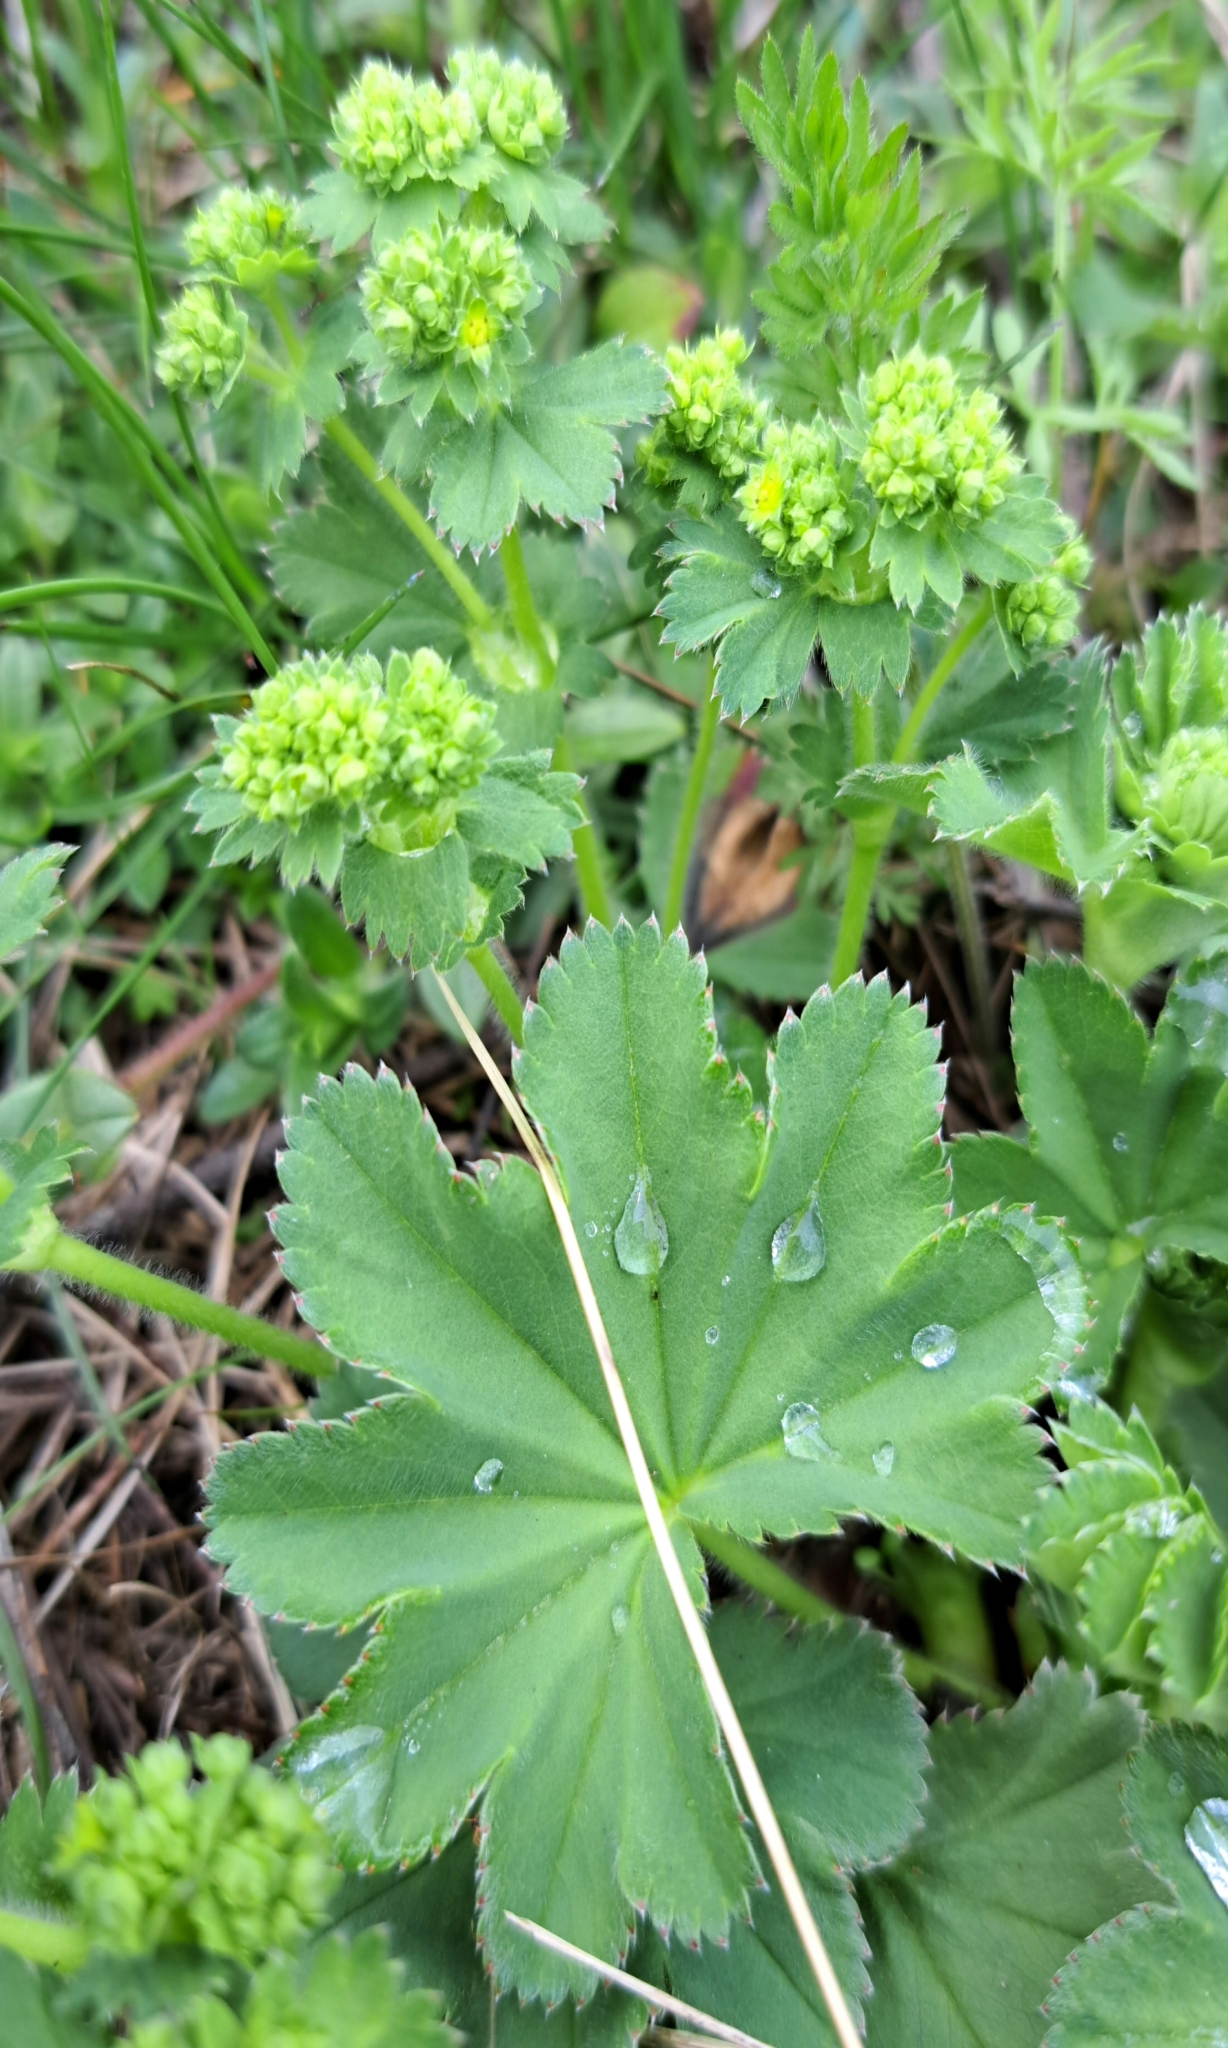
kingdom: Plantae
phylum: Tracheophyta
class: Magnoliopsida
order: Rosales
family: Rosaceae
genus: Alchemilla
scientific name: Alchemilla monticola
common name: Hairy lady's mantle
